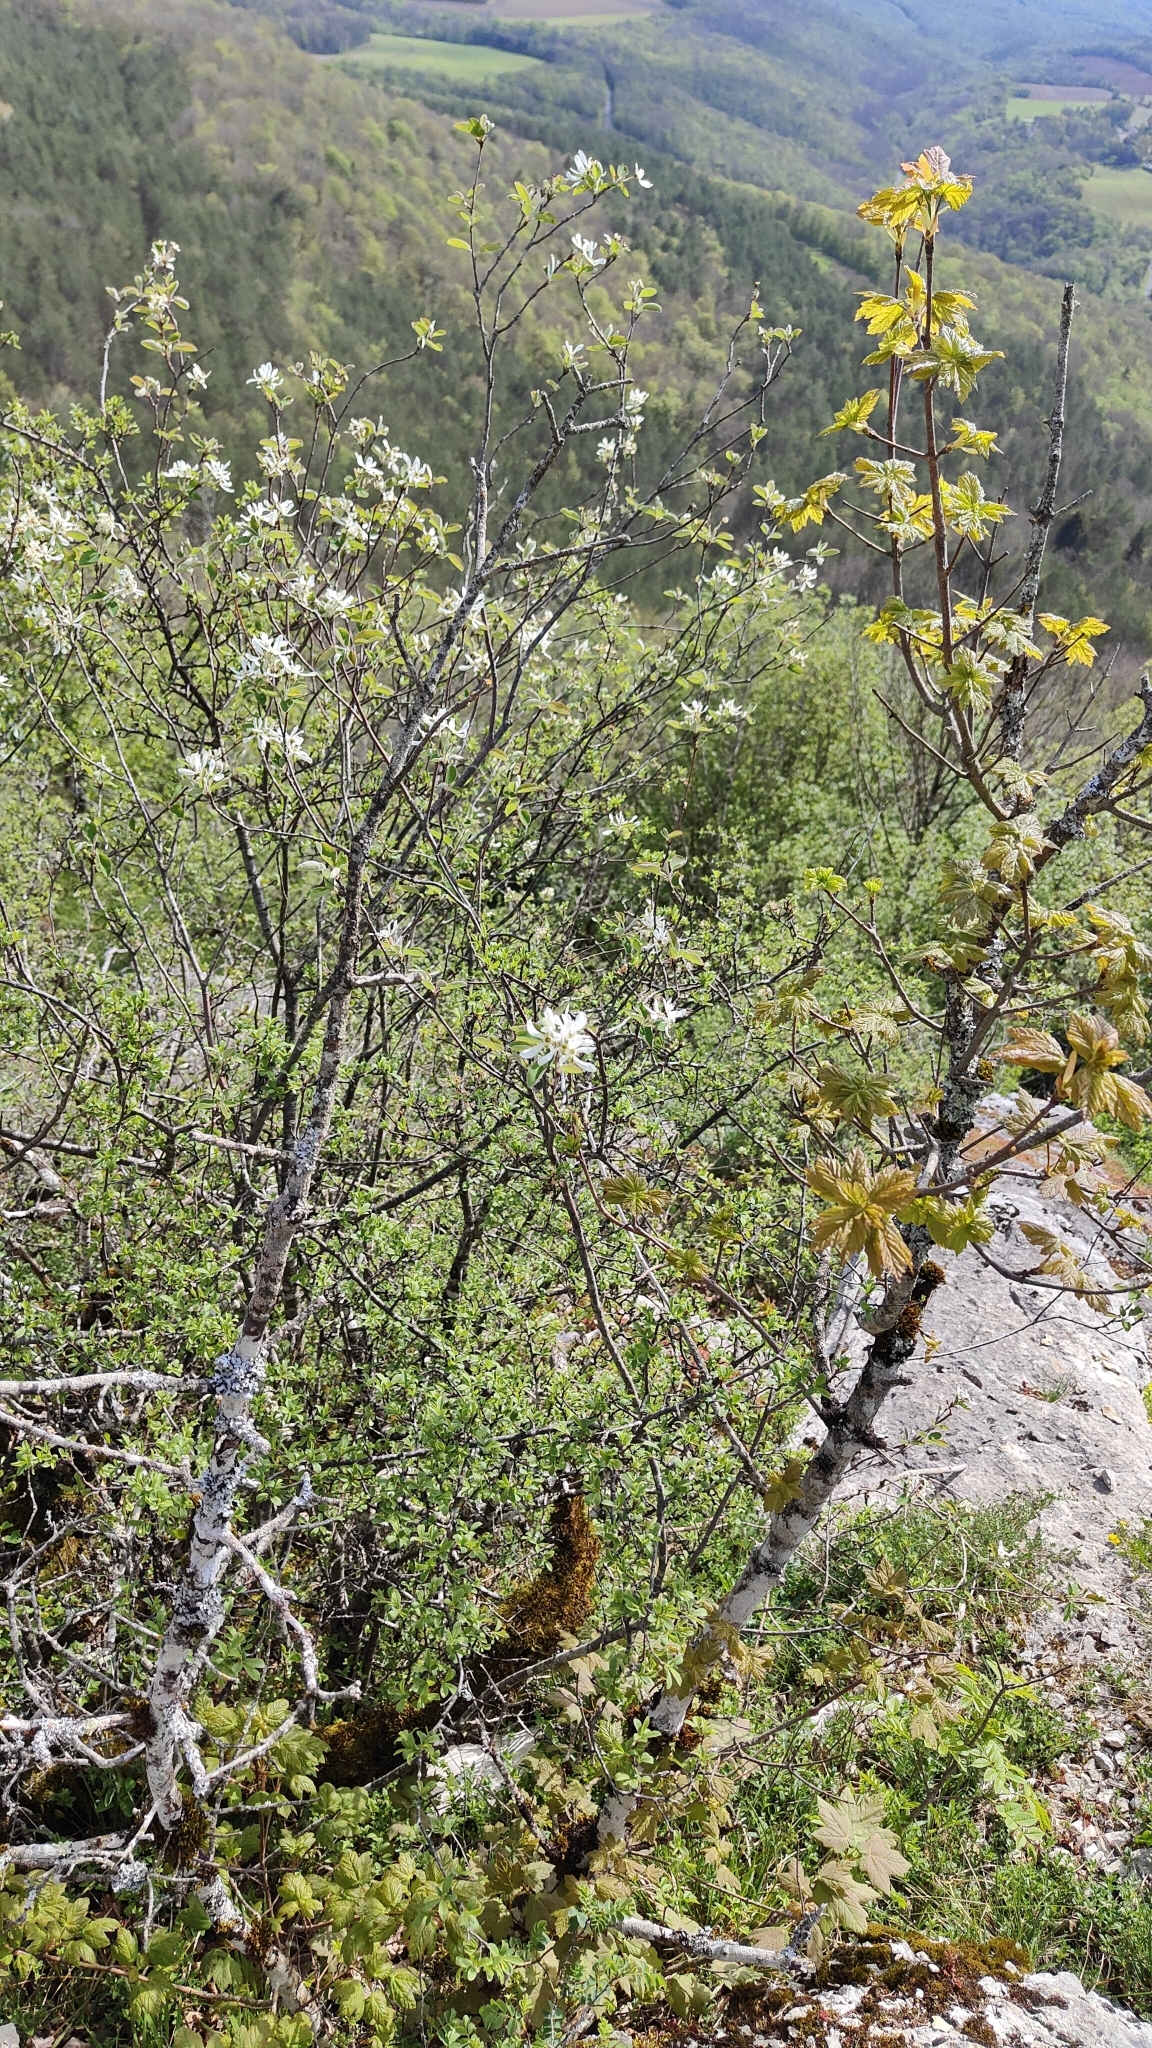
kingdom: Plantae
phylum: Tracheophyta
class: Magnoliopsida
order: Rosales
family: Rosaceae
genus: Amelanchier
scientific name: Amelanchier ovalis
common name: Serviceberry
